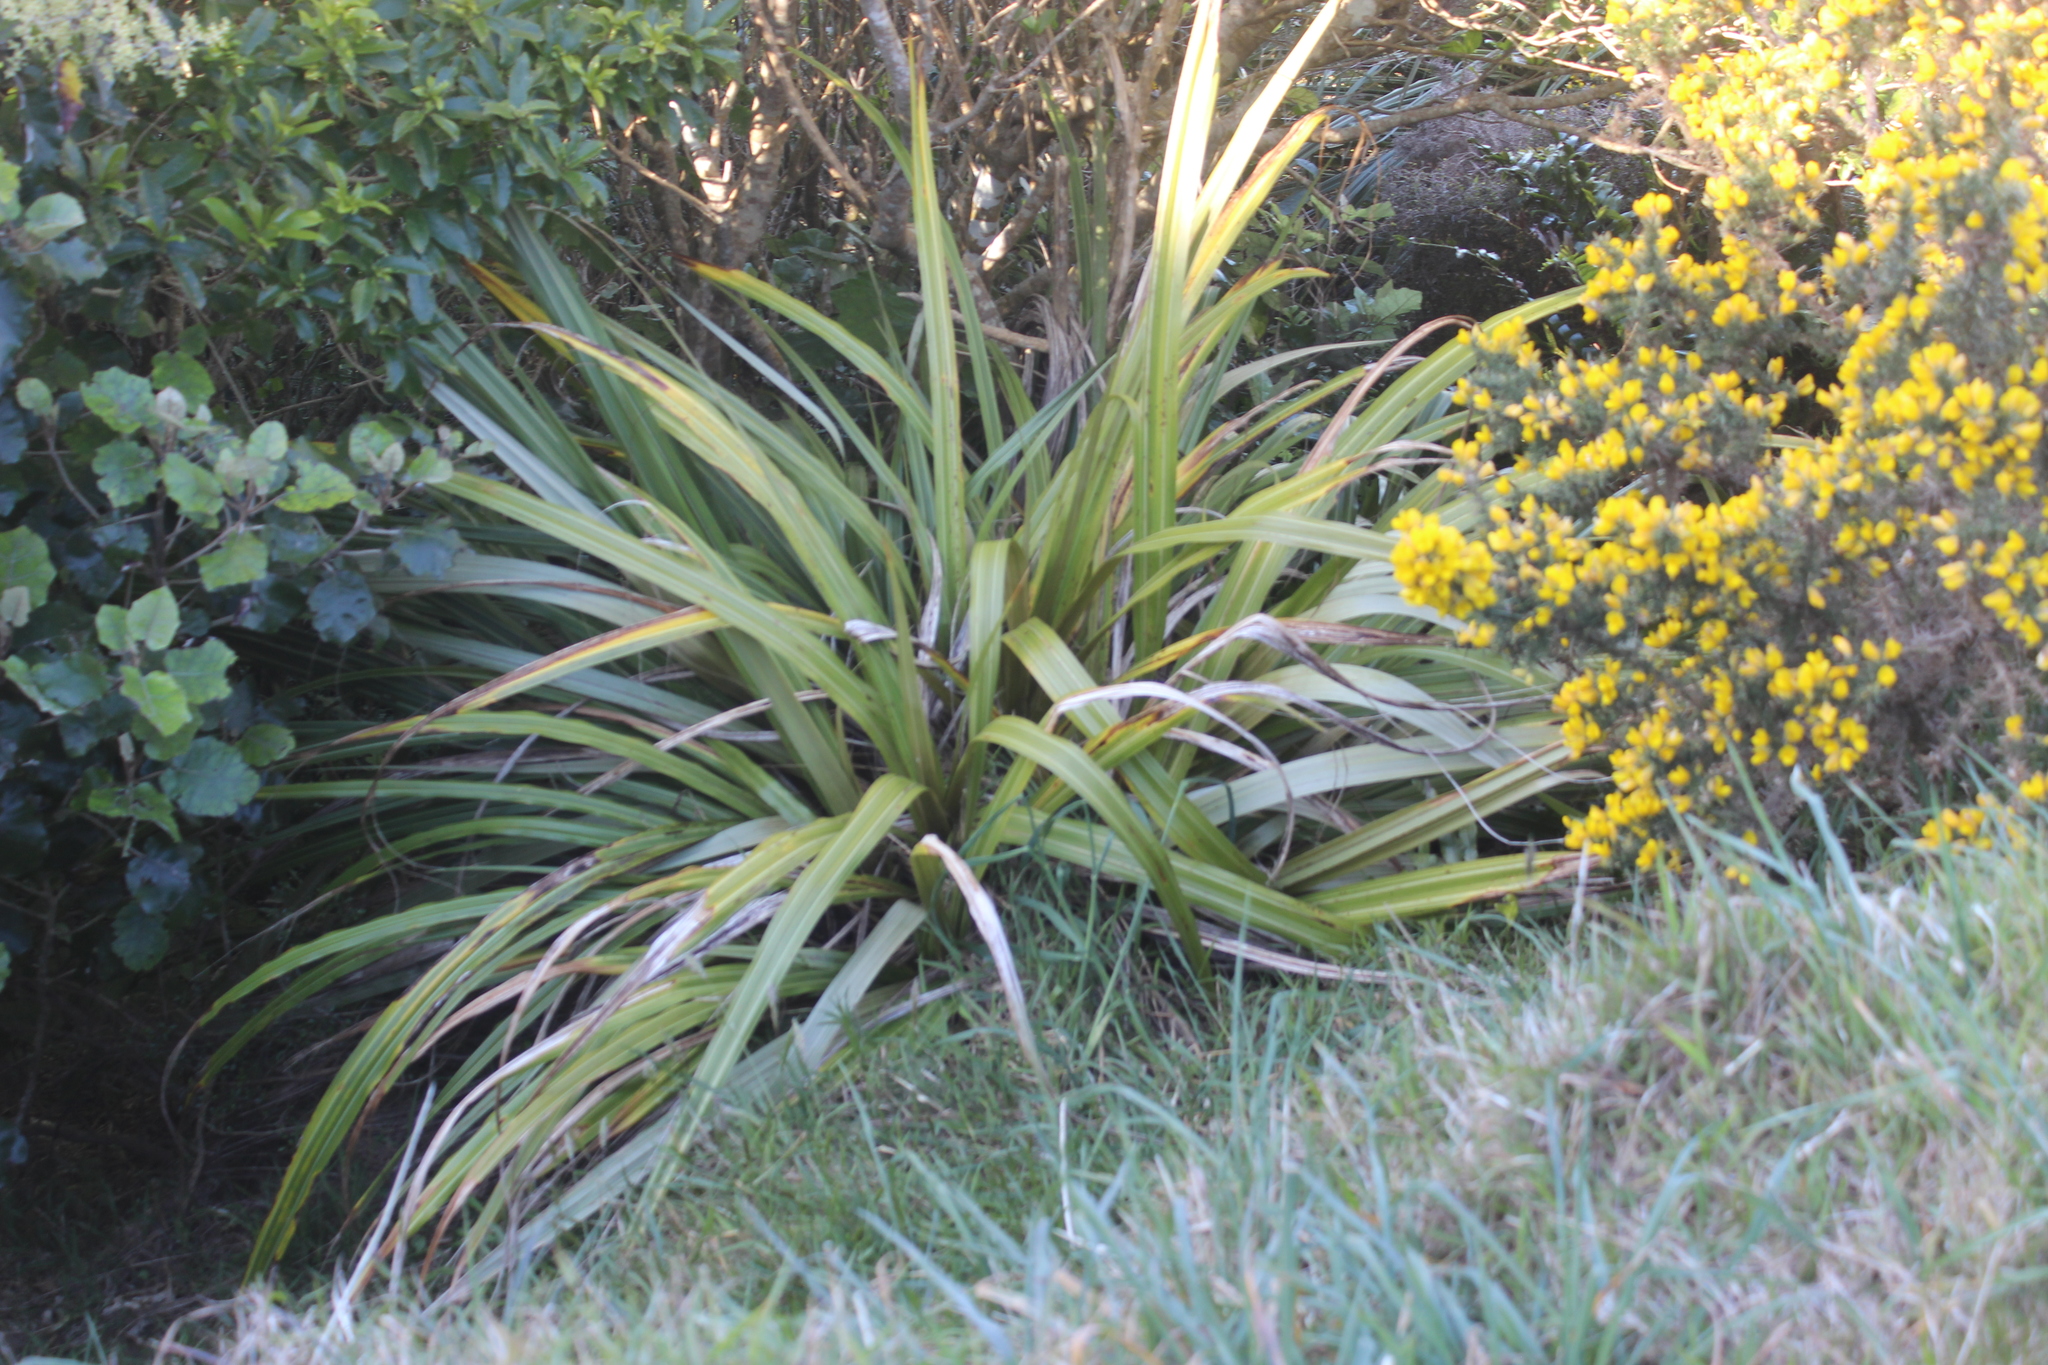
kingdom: Plantae
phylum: Tracheophyta
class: Liliopsida
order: Asparagales
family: Asteliaceae
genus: Astelia
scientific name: Astelia fragrans
